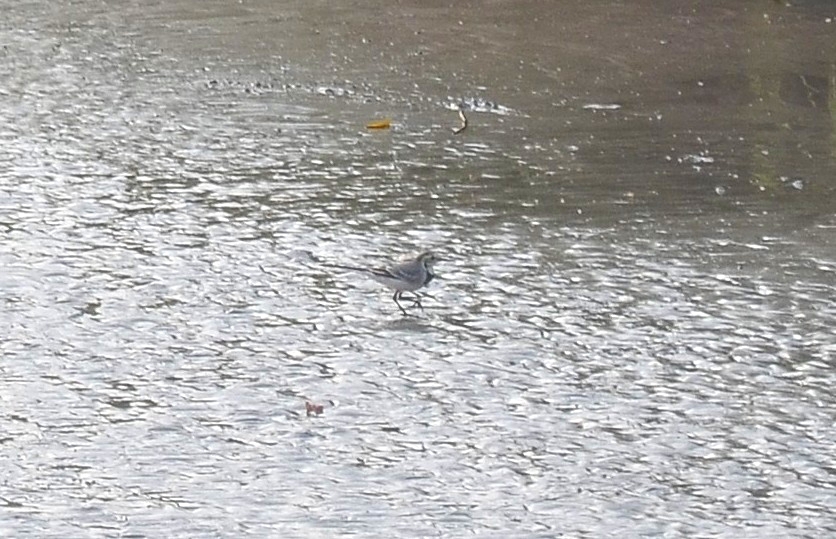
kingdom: Animalia
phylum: Chordata
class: Aves
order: Passeriformes
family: Motacillidae
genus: Motacilla
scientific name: Motacilla alba
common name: White wagtail
